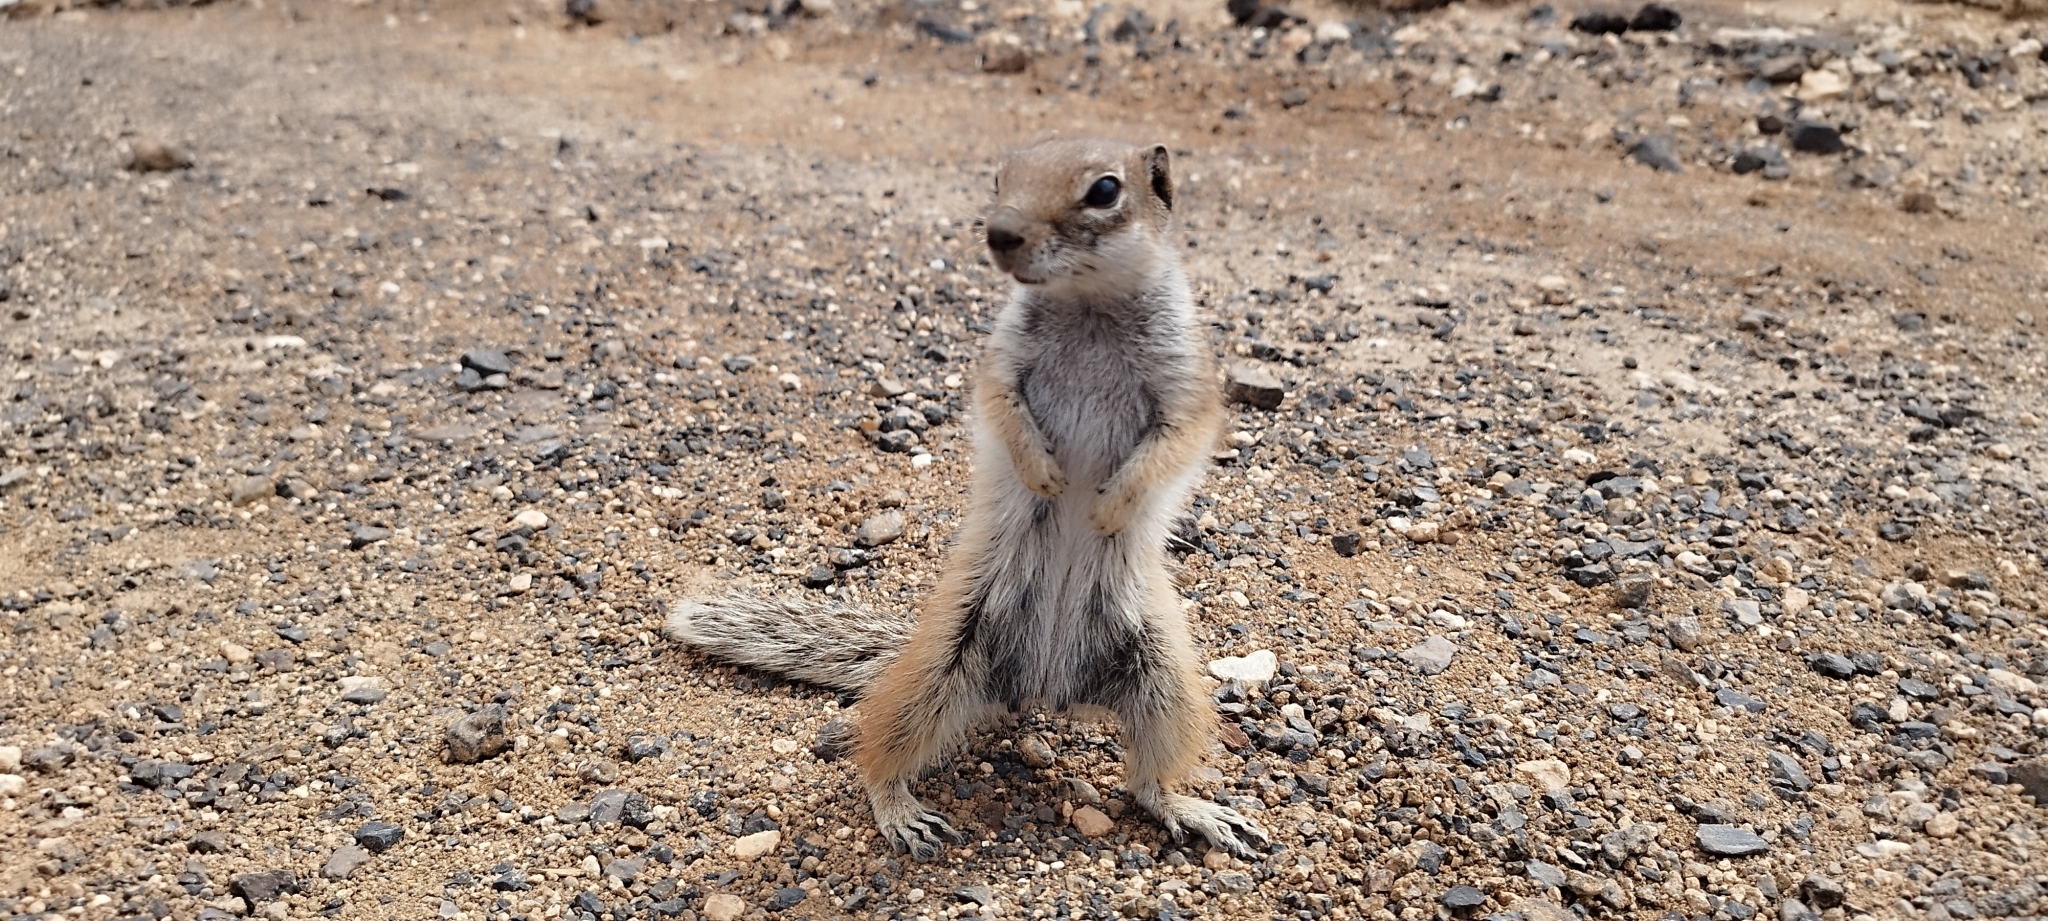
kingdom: Animalia
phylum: Chordata
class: Mammalia
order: Rodentia
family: Sciuridae
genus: Atlantoxerus
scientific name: Atlantoxerus getulus
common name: Barbary ground squirrel
